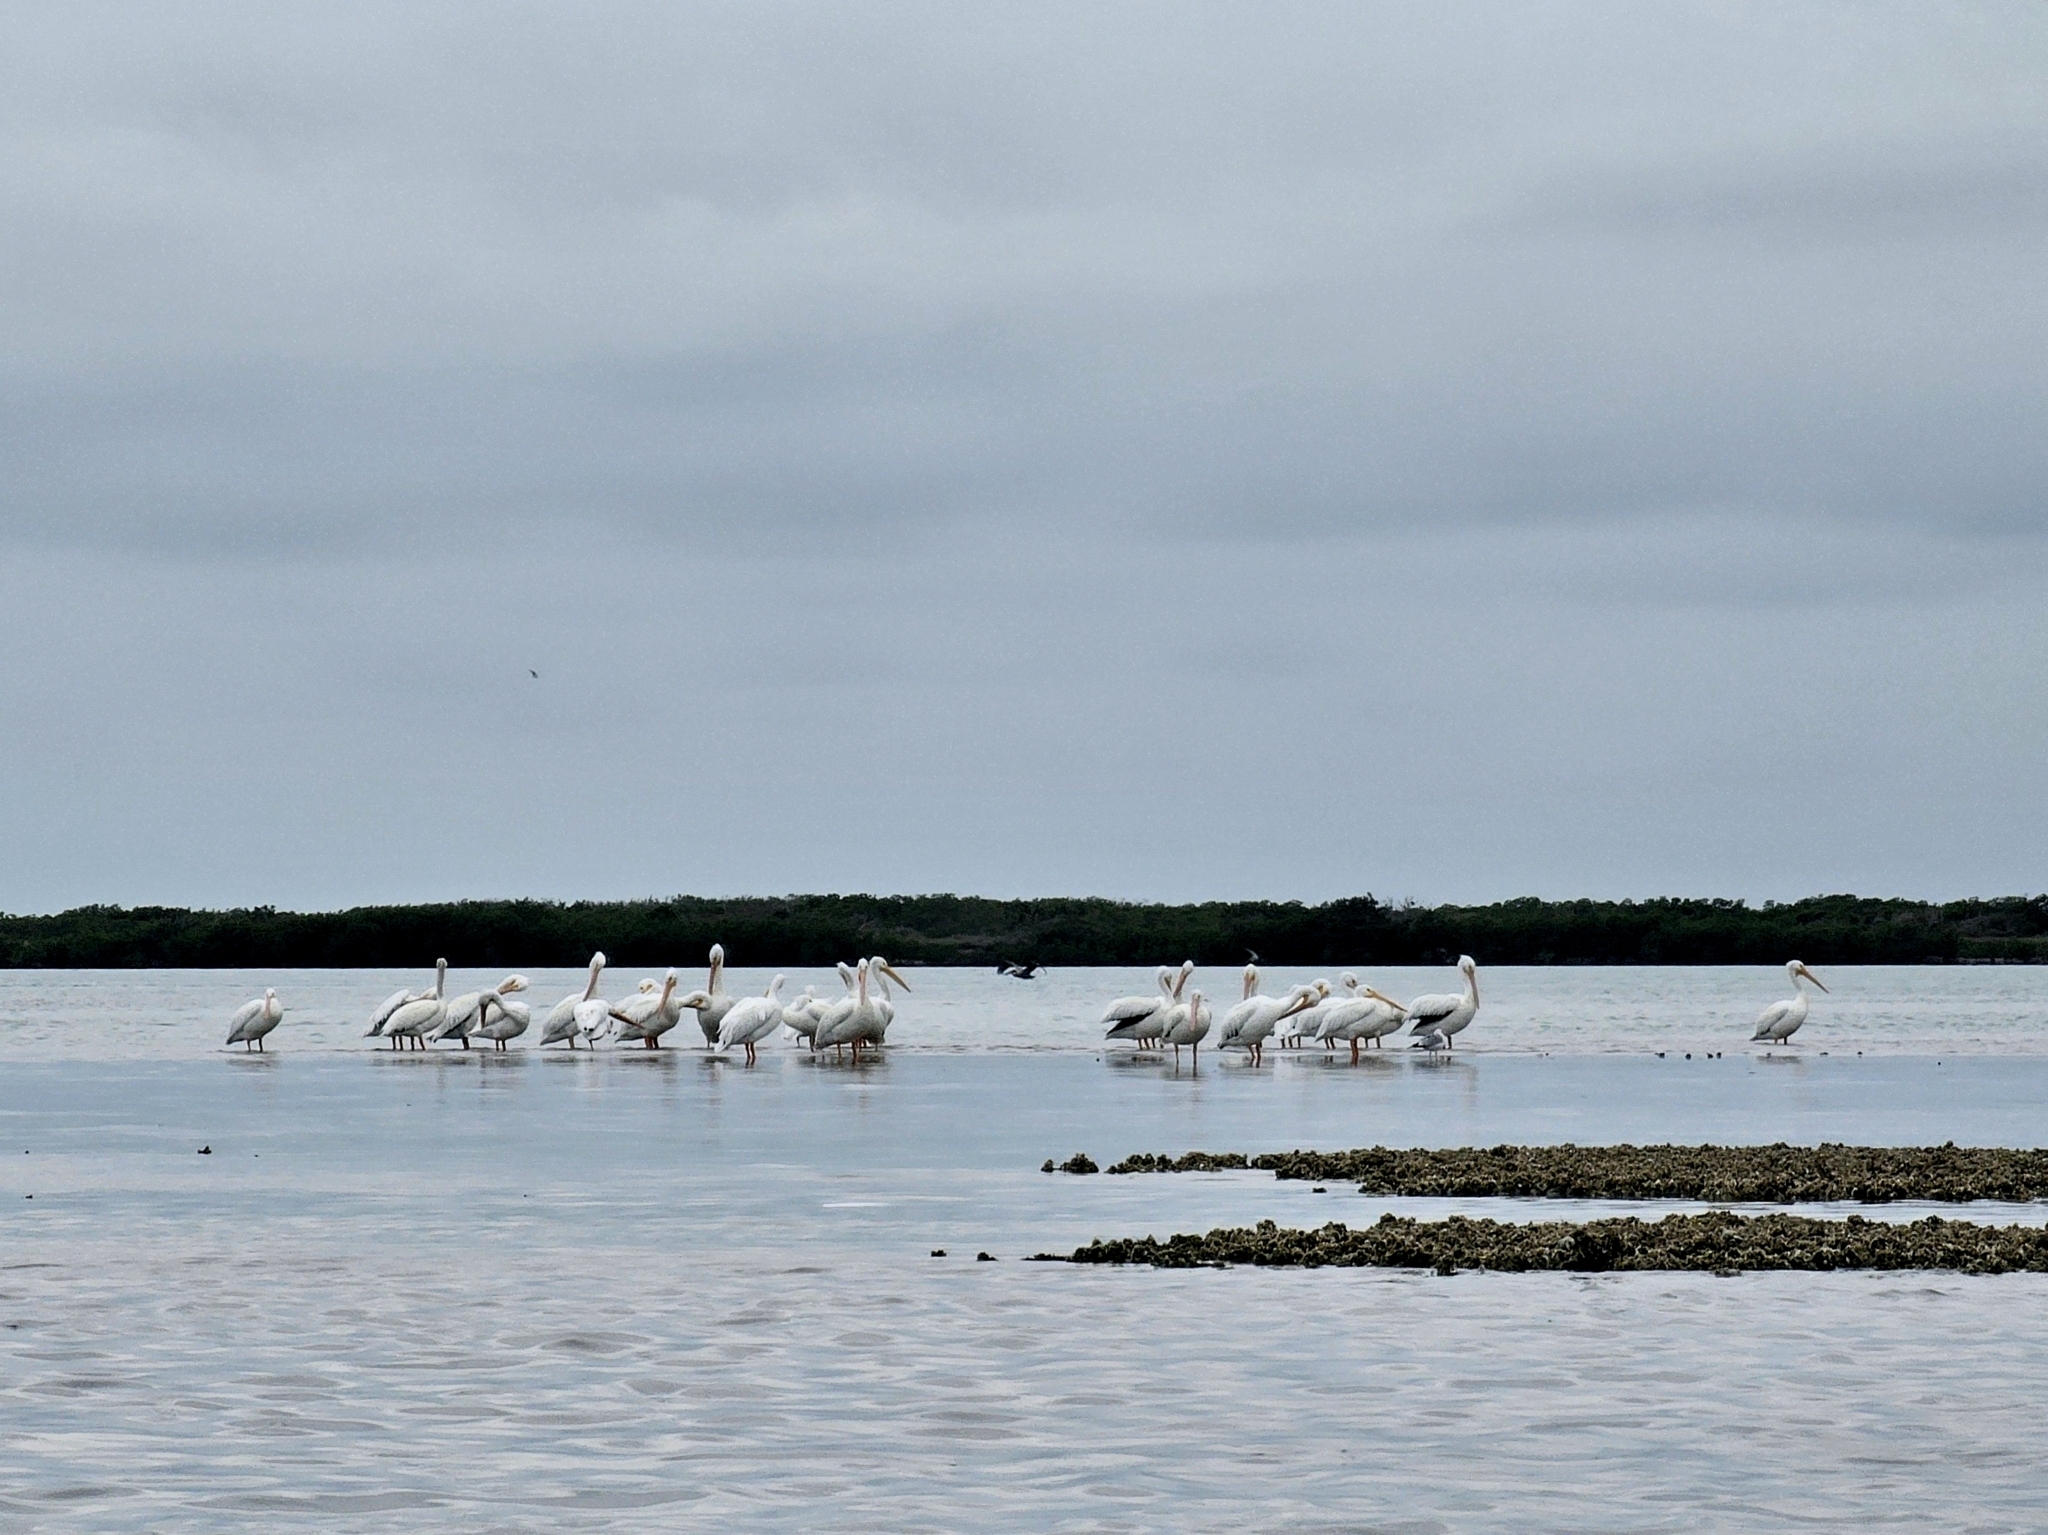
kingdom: Animalia
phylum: Chordata
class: Aves
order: Pelecaniformes
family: Pelecanidae
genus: Pelecanus
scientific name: Pelecanus erythrorhynchos
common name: American white pelican
